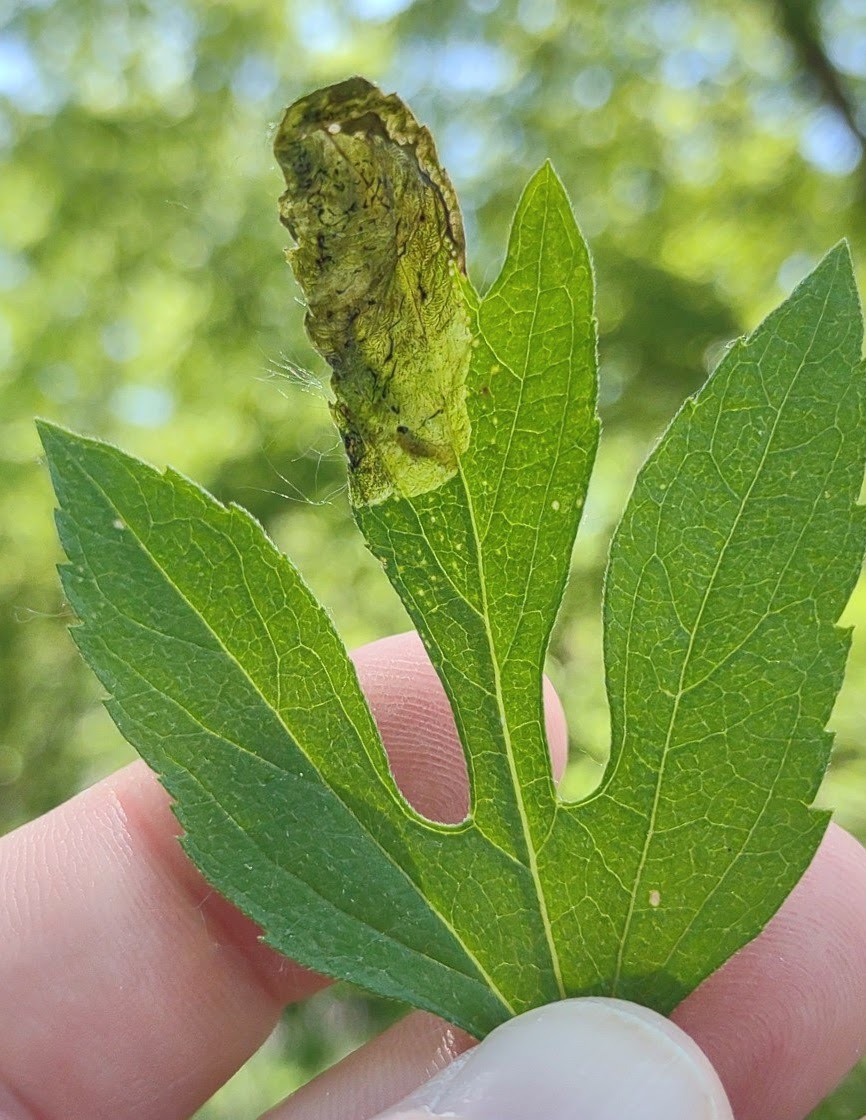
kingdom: Animalia
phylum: Arthropoda
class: Insecta
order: Diptera
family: Agromyzidae
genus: Agromyza
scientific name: Agromyza ambrosivora
